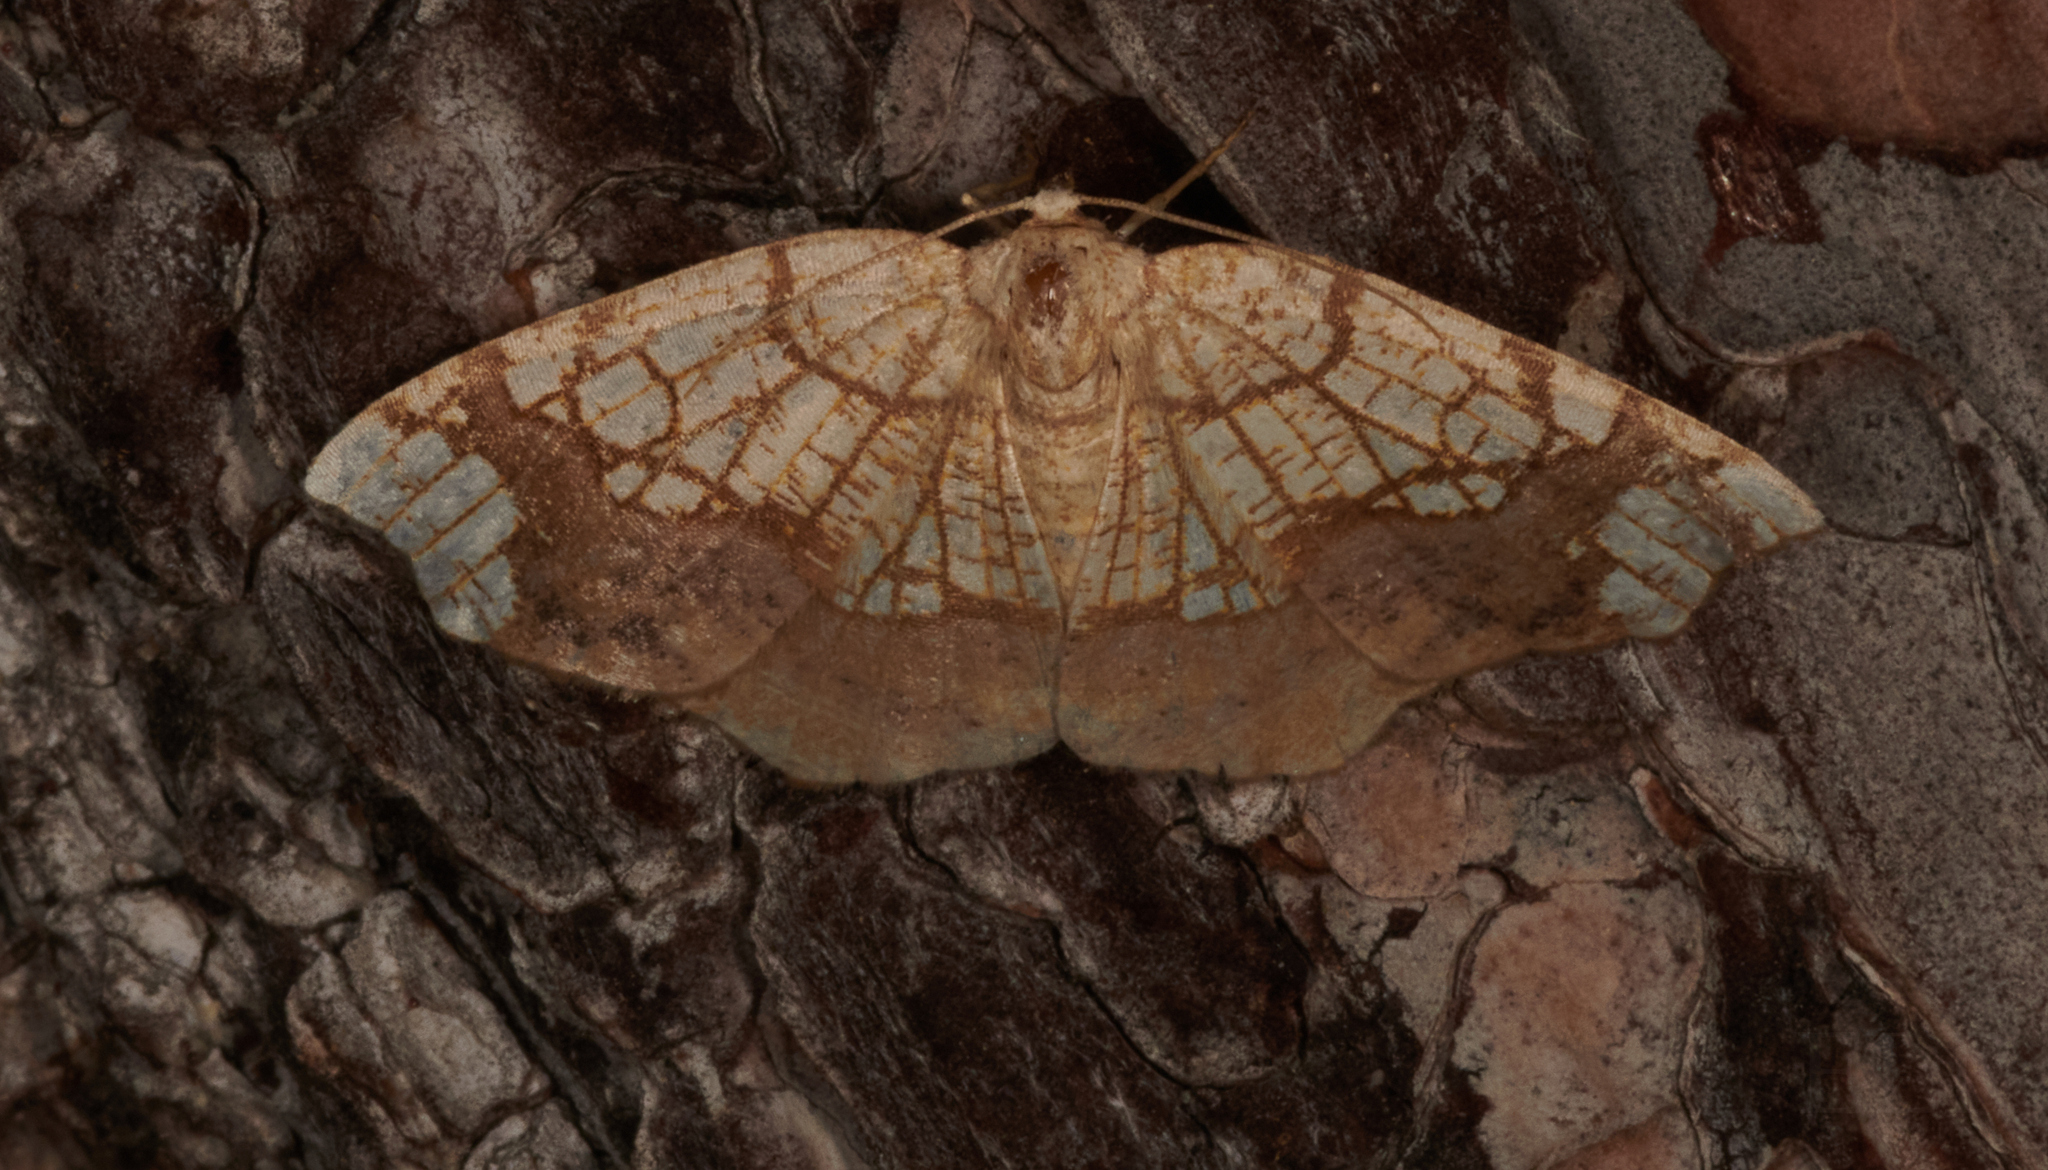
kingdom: Animalia
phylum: Arthropoda
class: Insecta
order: Lepidoptera
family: Geometridae
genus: Nematocampa
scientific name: Nematocampa resistaria
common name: Horned spanworm moth
